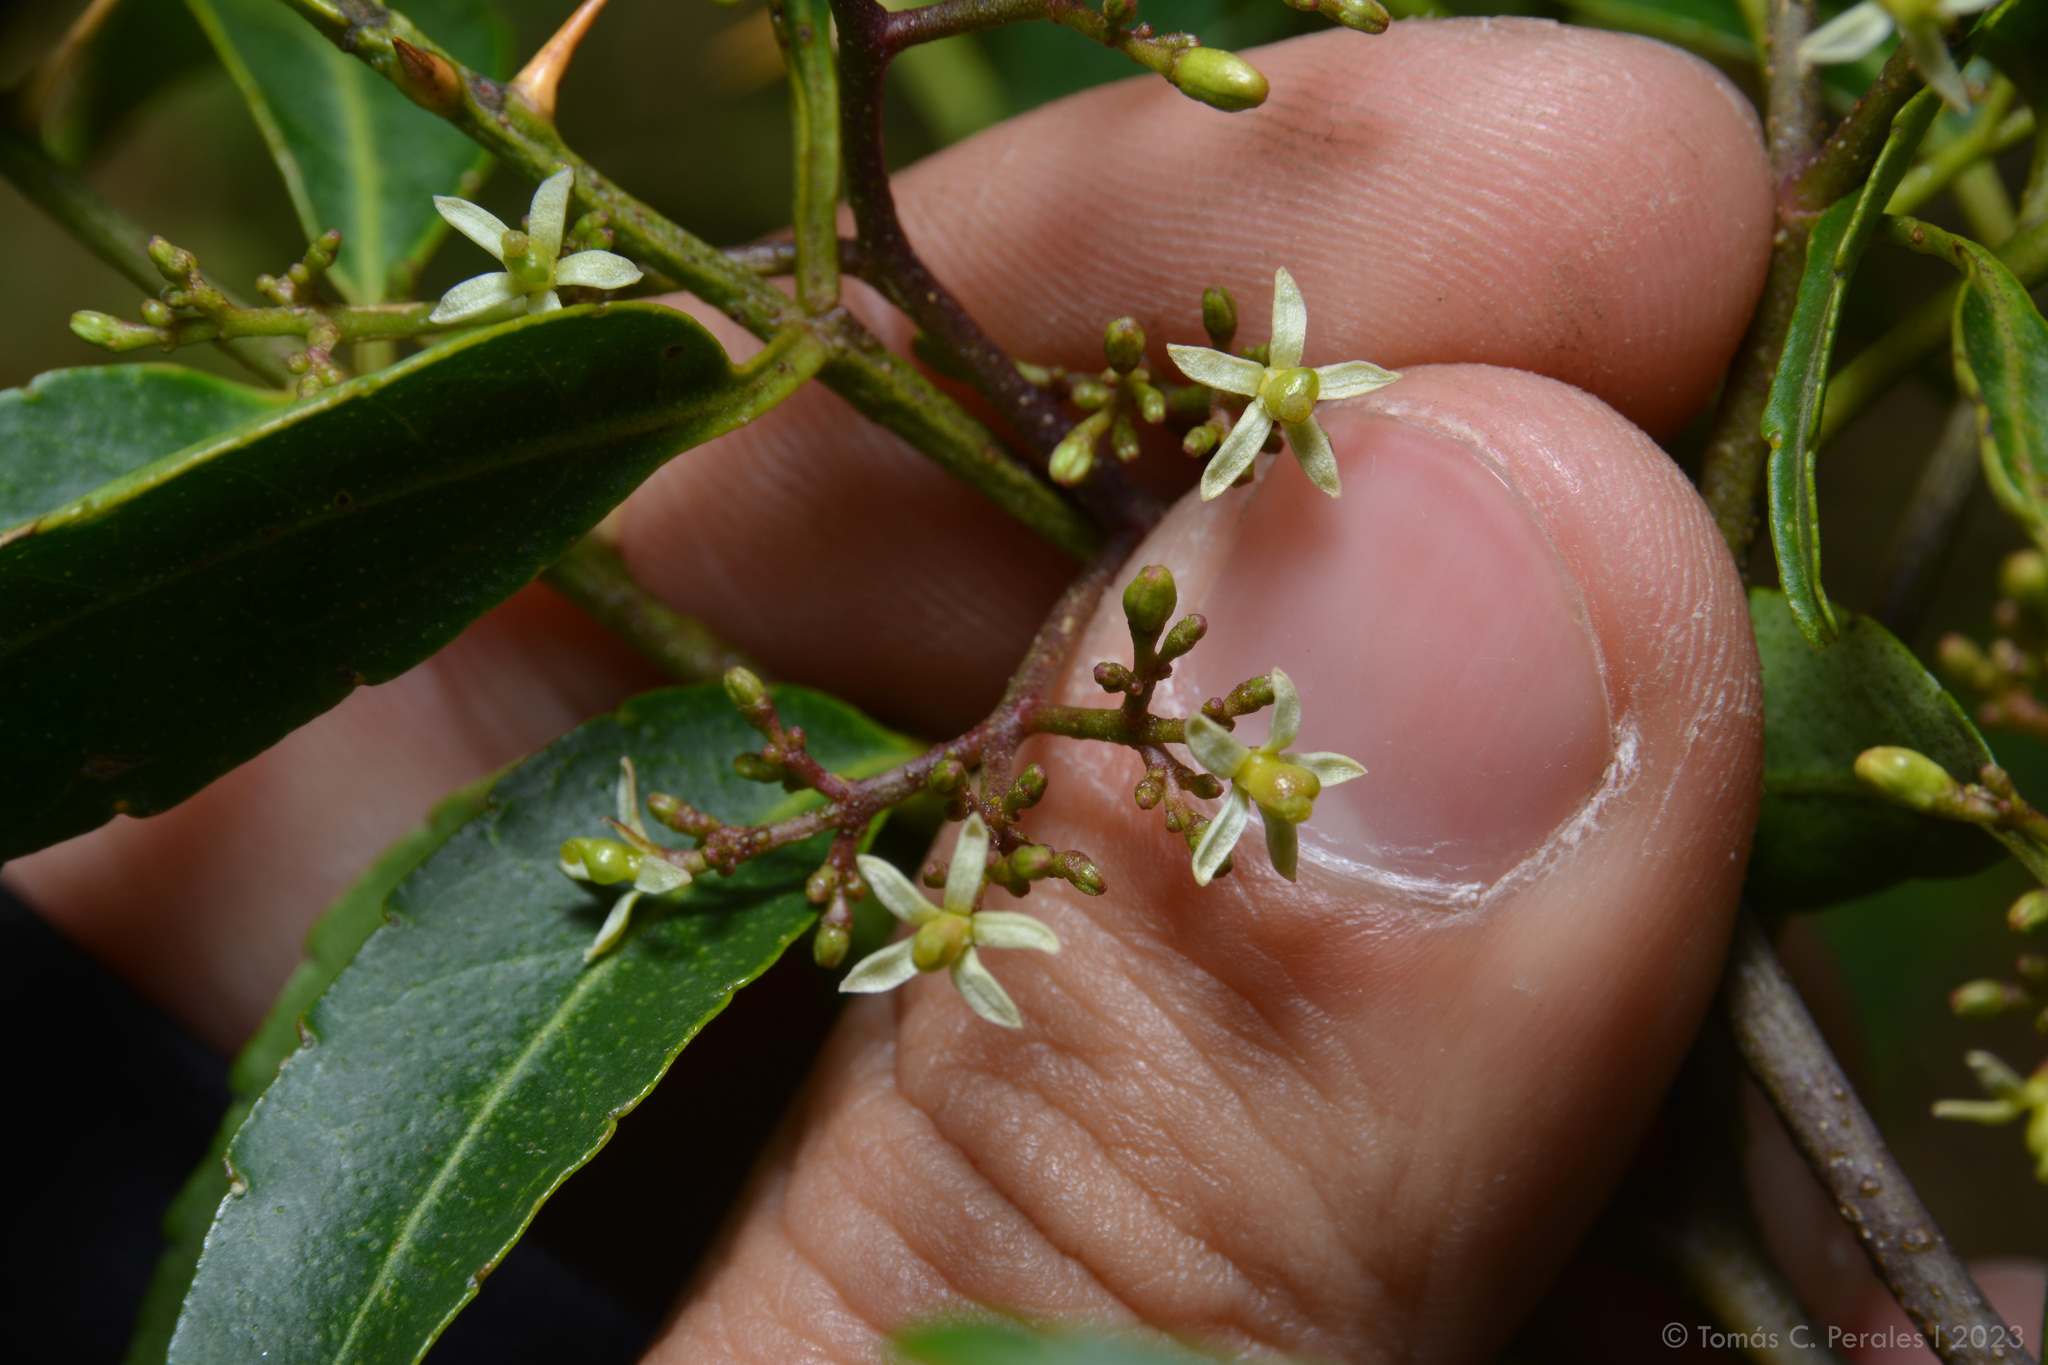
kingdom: Plantae
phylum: Tracheophyta
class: Magnoliopsida
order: Sapindales
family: Rutaceae
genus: Zanthoxylum
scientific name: Zanthoxylum coco
